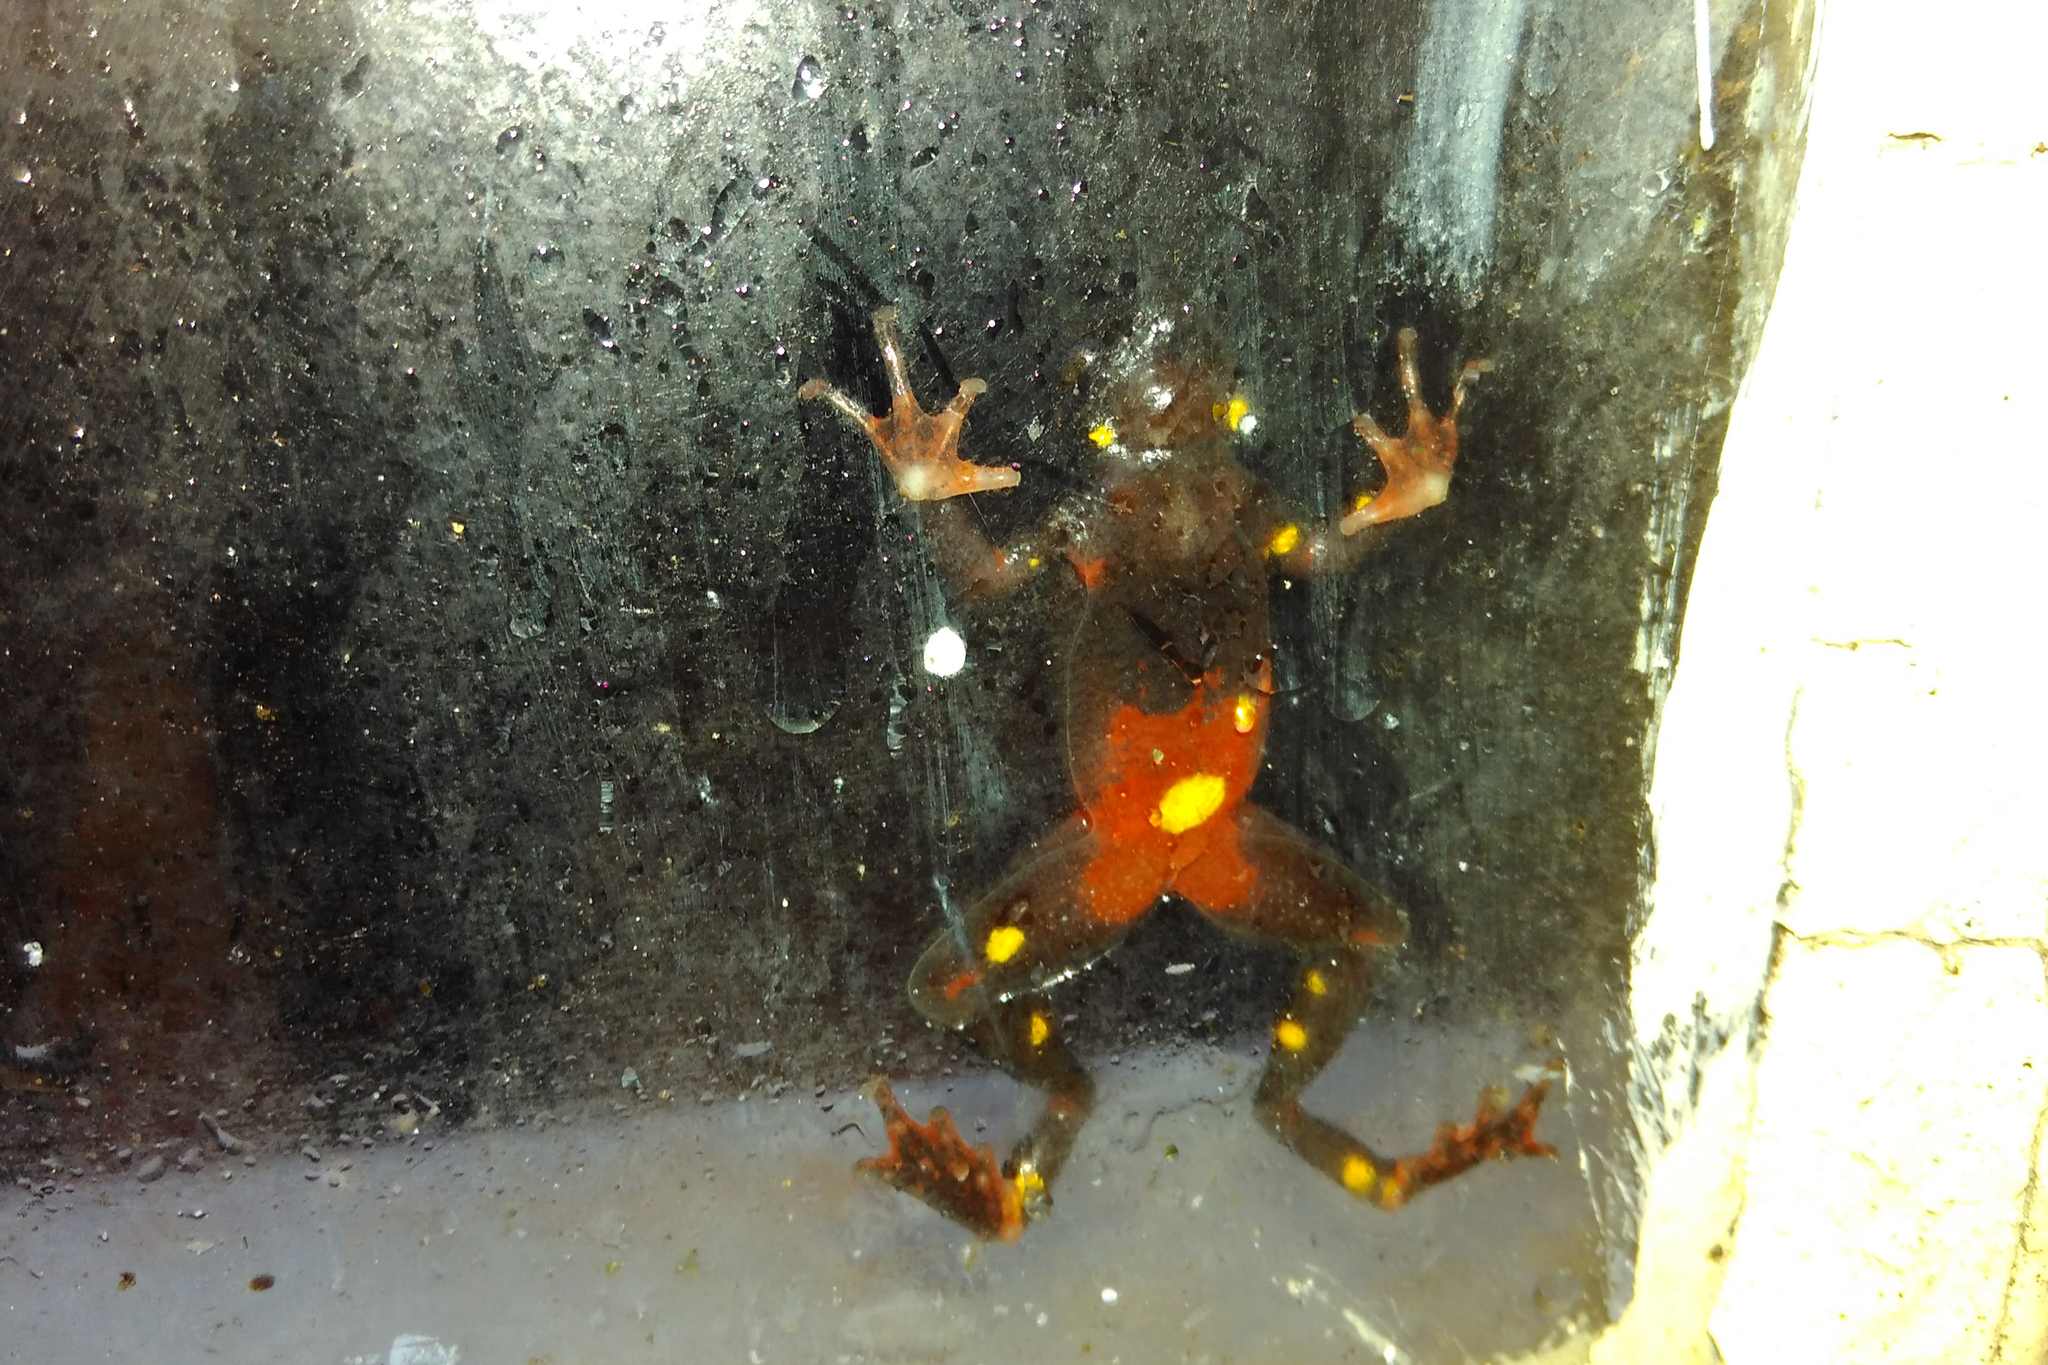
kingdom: Animalia
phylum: Chordata
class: Amphibia
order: Anura
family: Bufonidae
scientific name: Bufonidae
